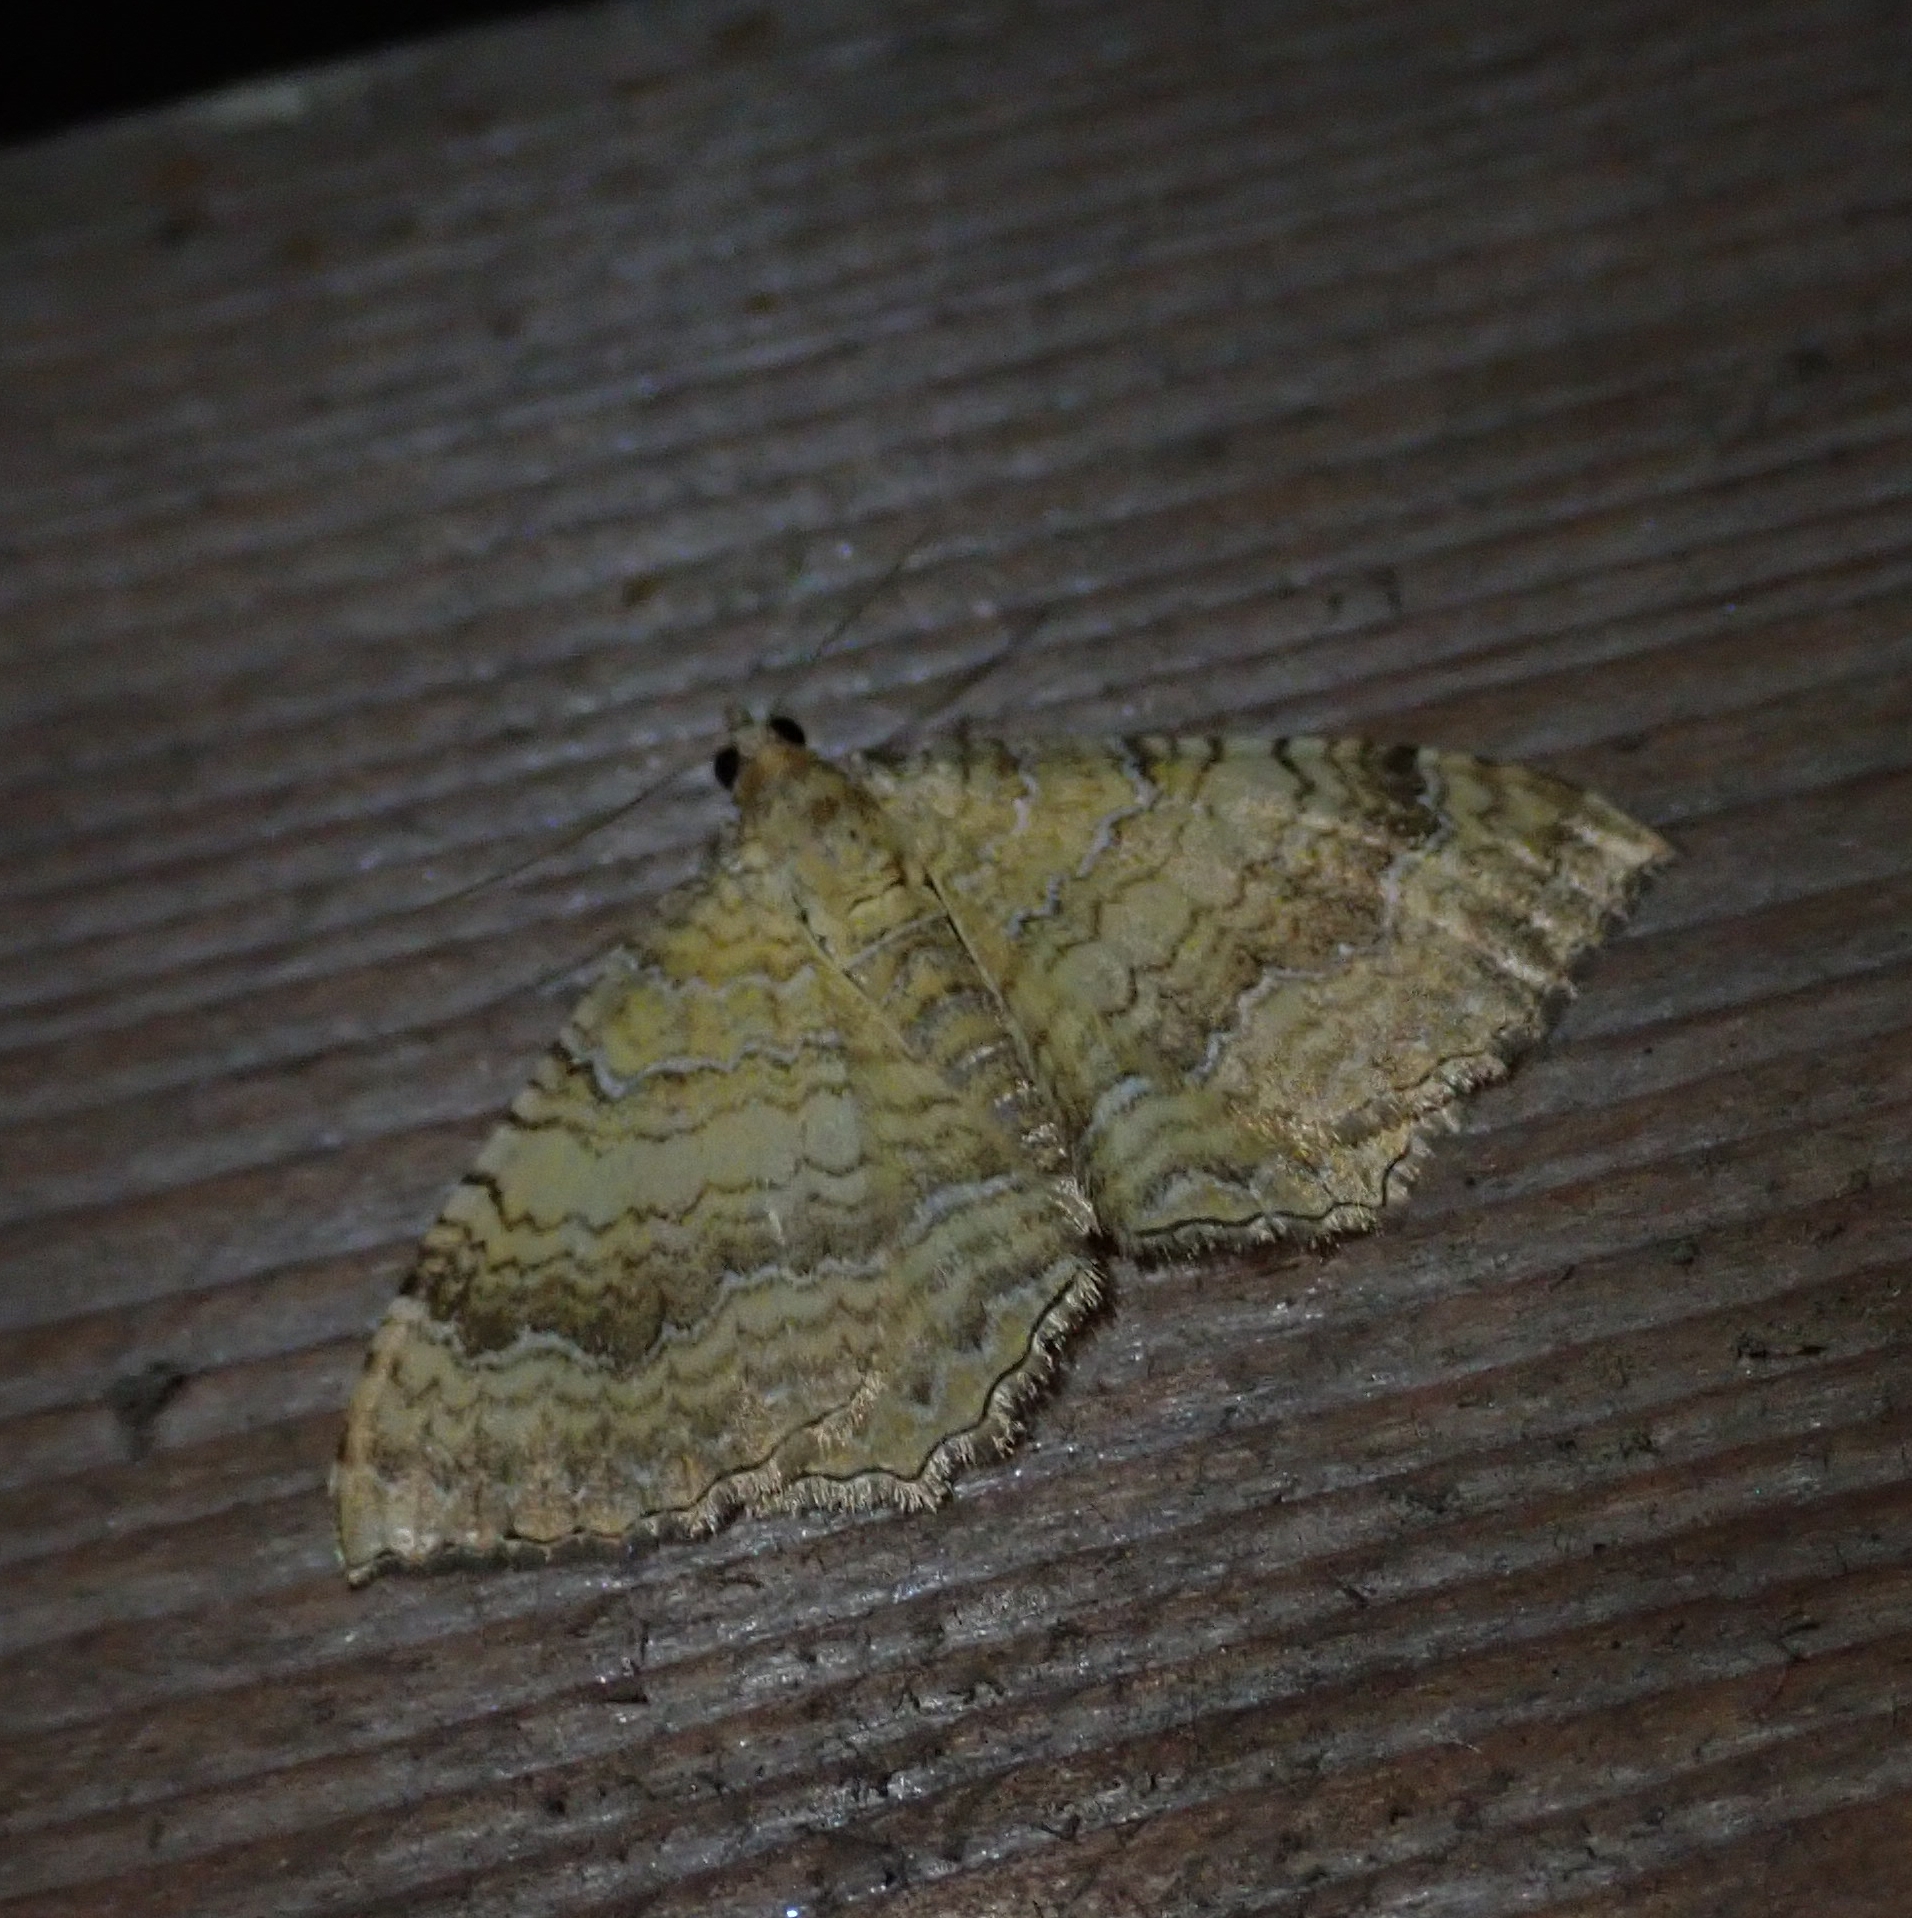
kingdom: Animalia
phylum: Arthropoda
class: Insecta
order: Lepidoptera
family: Geometridae
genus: Camptogramma
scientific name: Camptogramma bilineata
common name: Yellow shell
